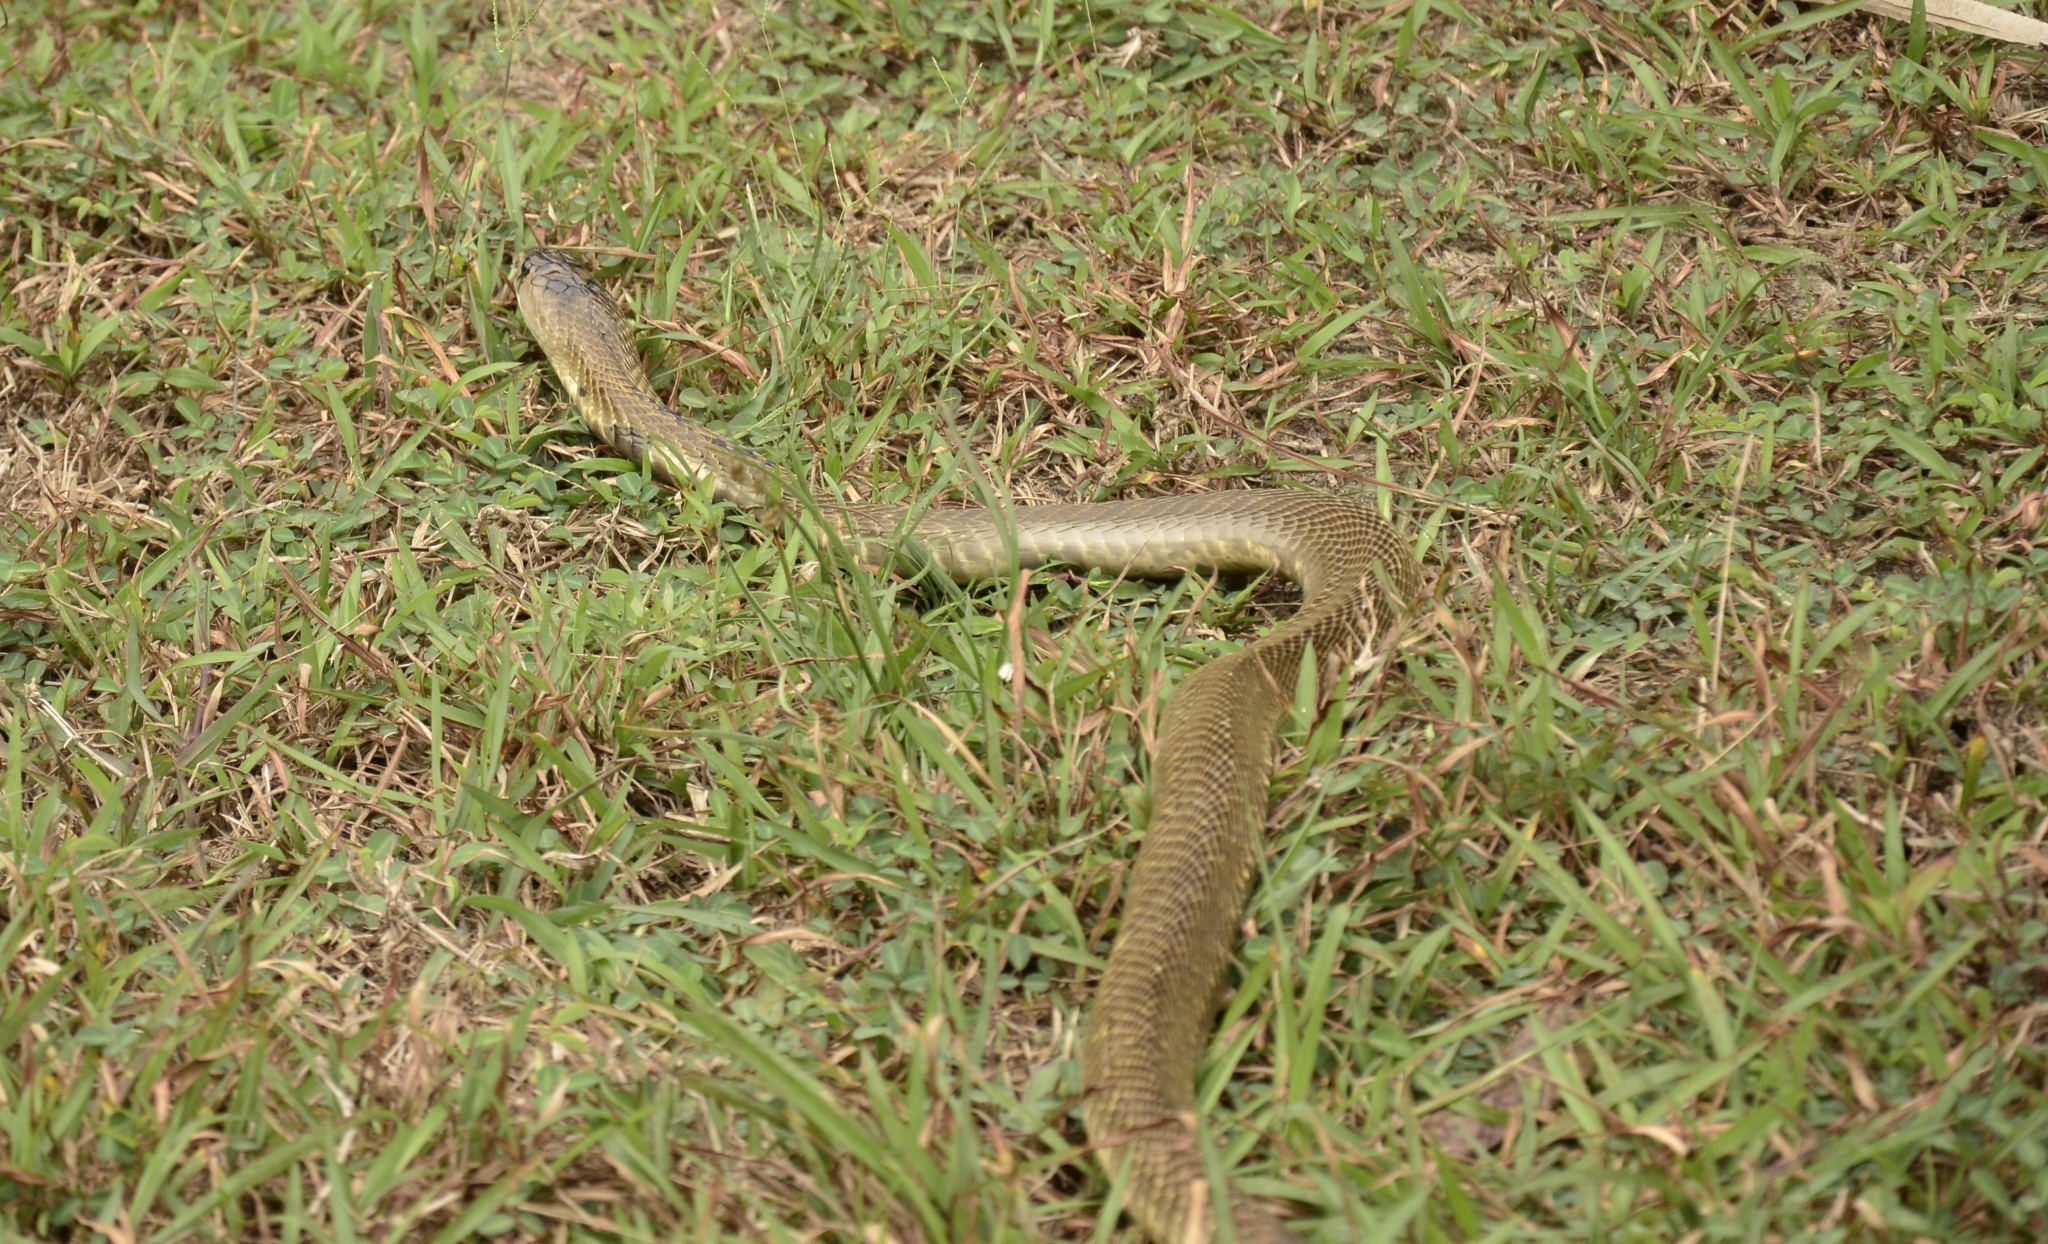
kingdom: Animalia
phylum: Chordata
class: Squamata
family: Elapidae
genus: Naja
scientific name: Naja naja
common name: Indian cobra
